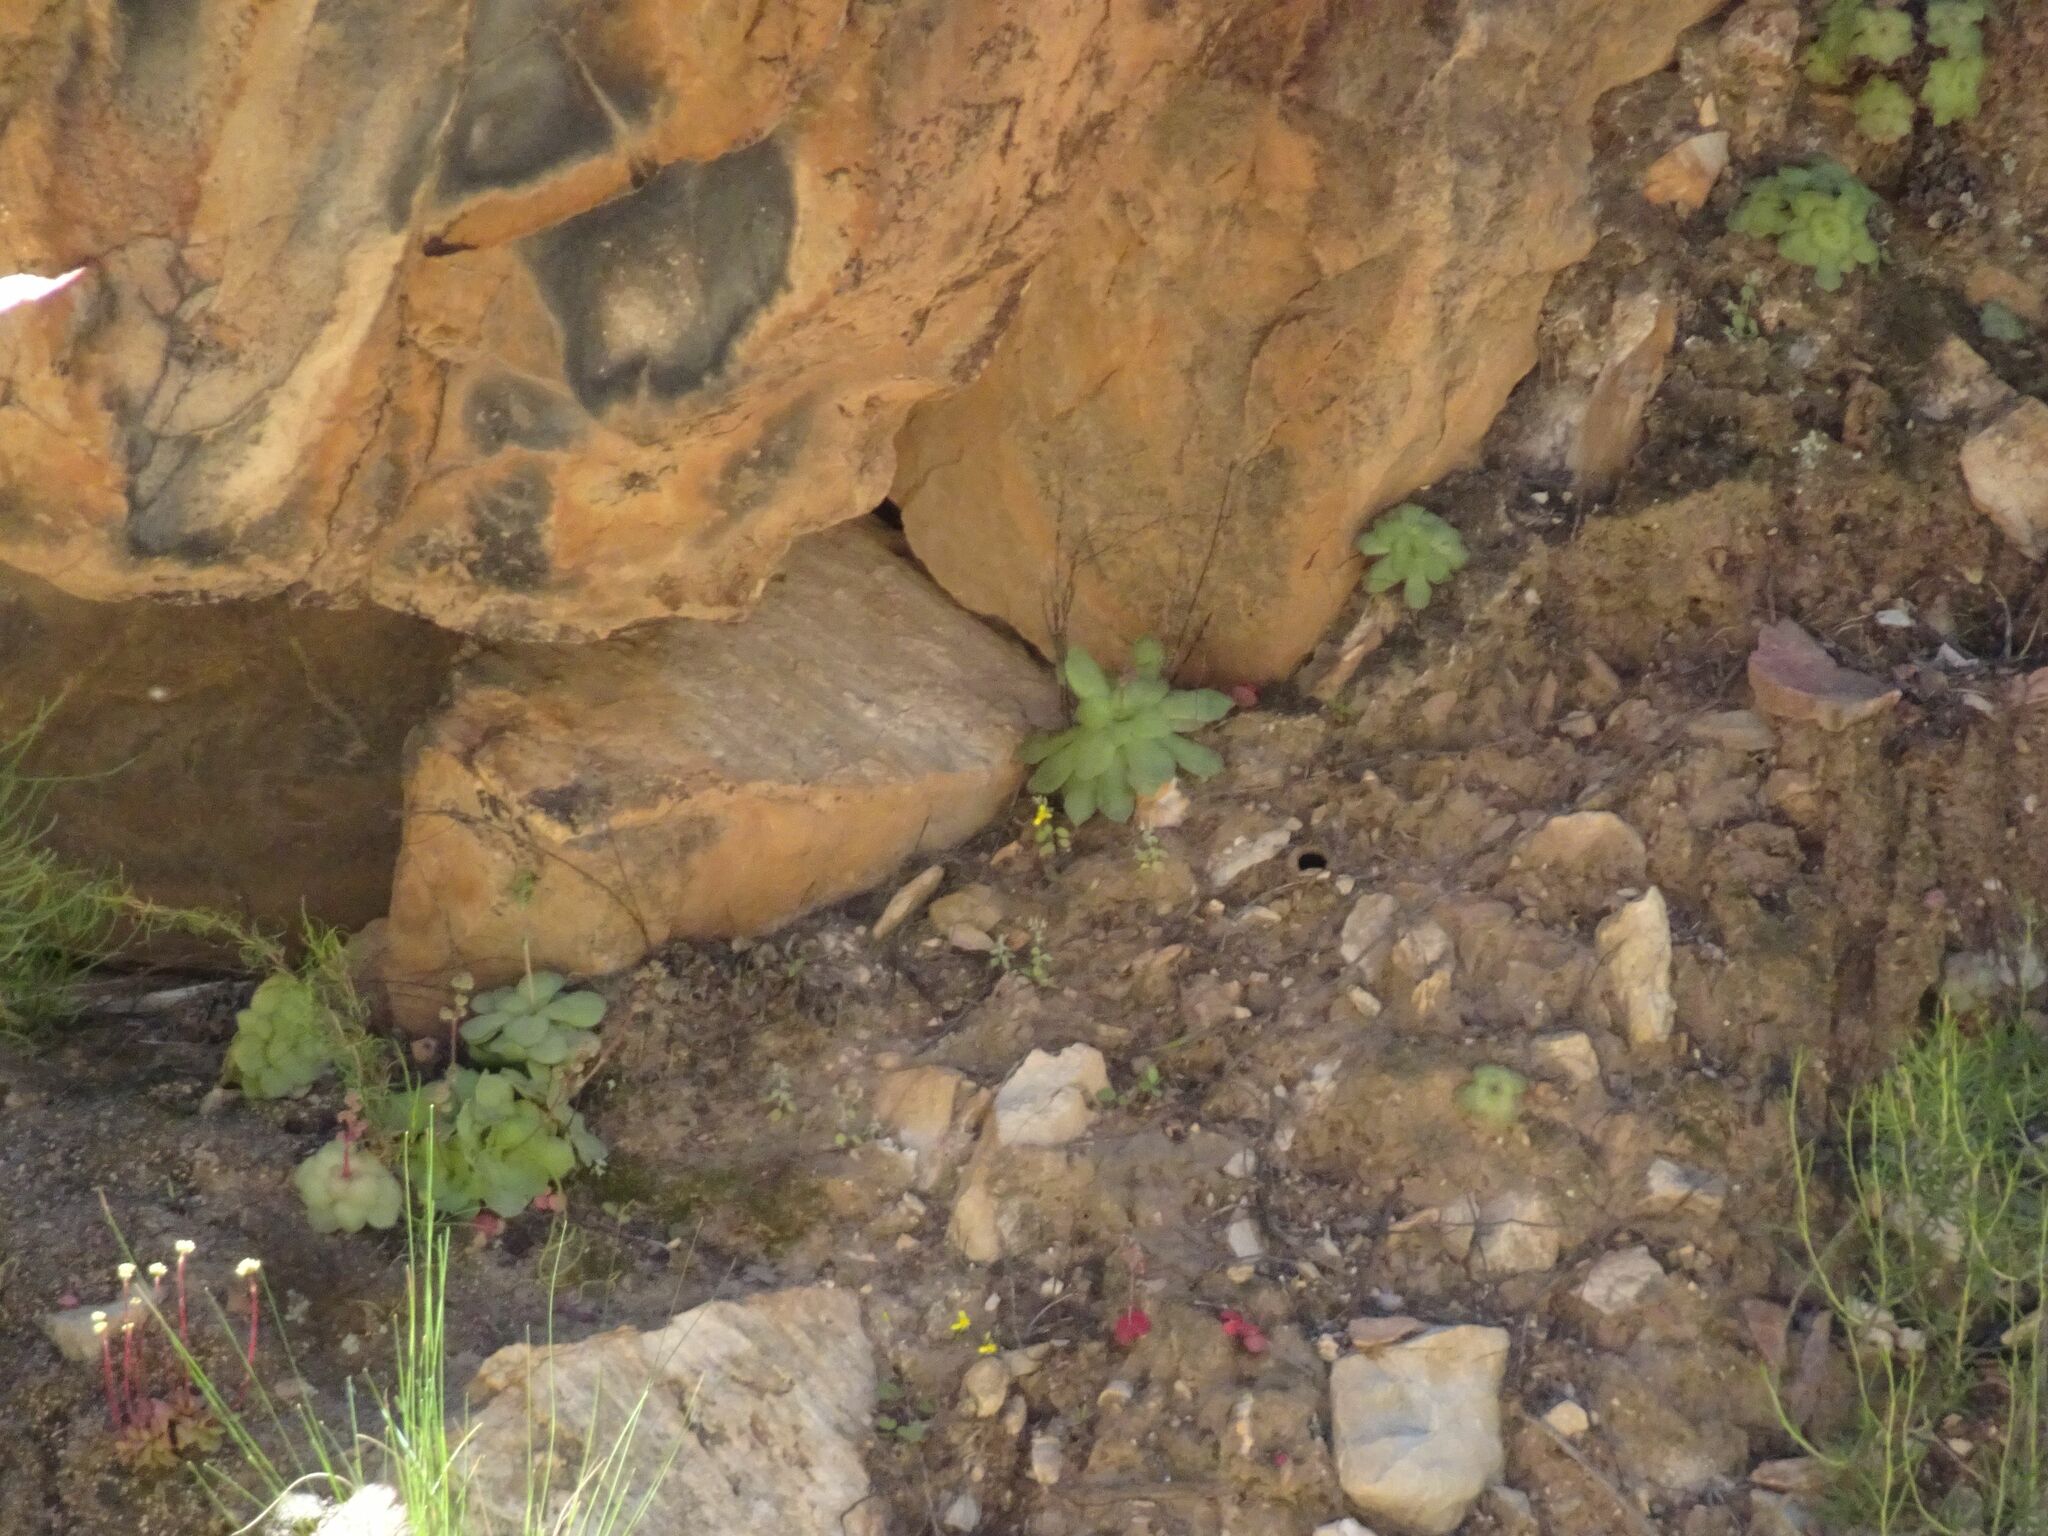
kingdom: Plantae
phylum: Tracheophyta
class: Magnoliopsida
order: Saxifragales
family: Crassulaceae
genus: Crassula
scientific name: Crassula orbicularis
